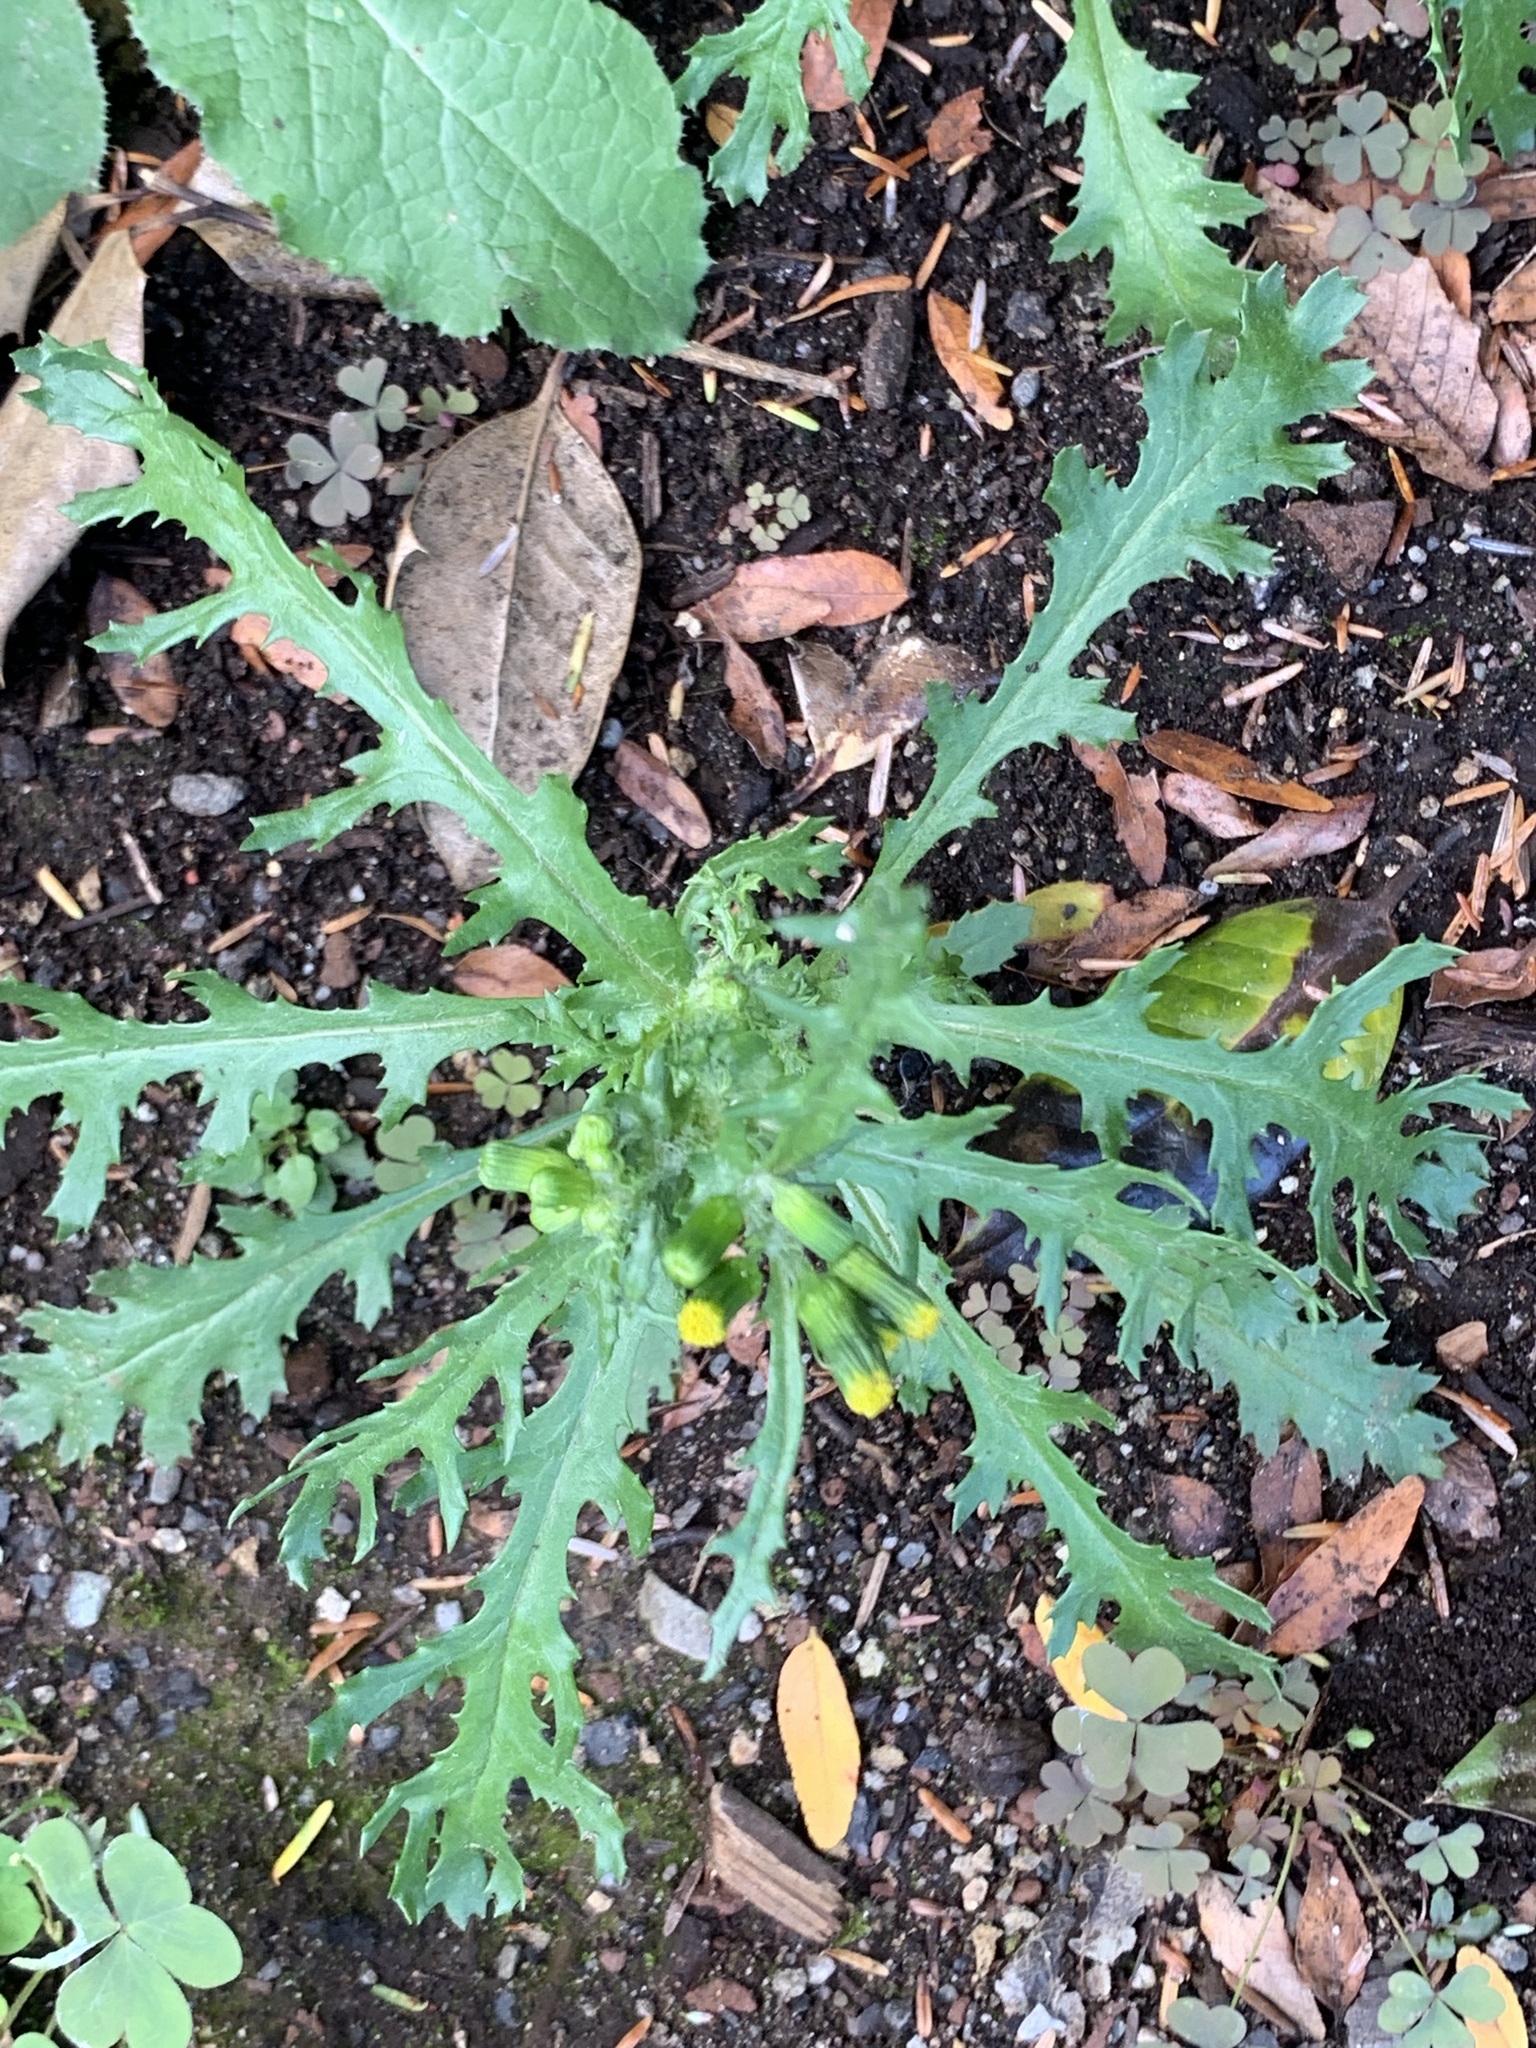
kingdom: Plantae
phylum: Tracheophyta
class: Magnoliopsida
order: Asterales
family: Asteraceae
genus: Senecio
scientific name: Senecio vulgaris
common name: Old-man-in-the-spring
